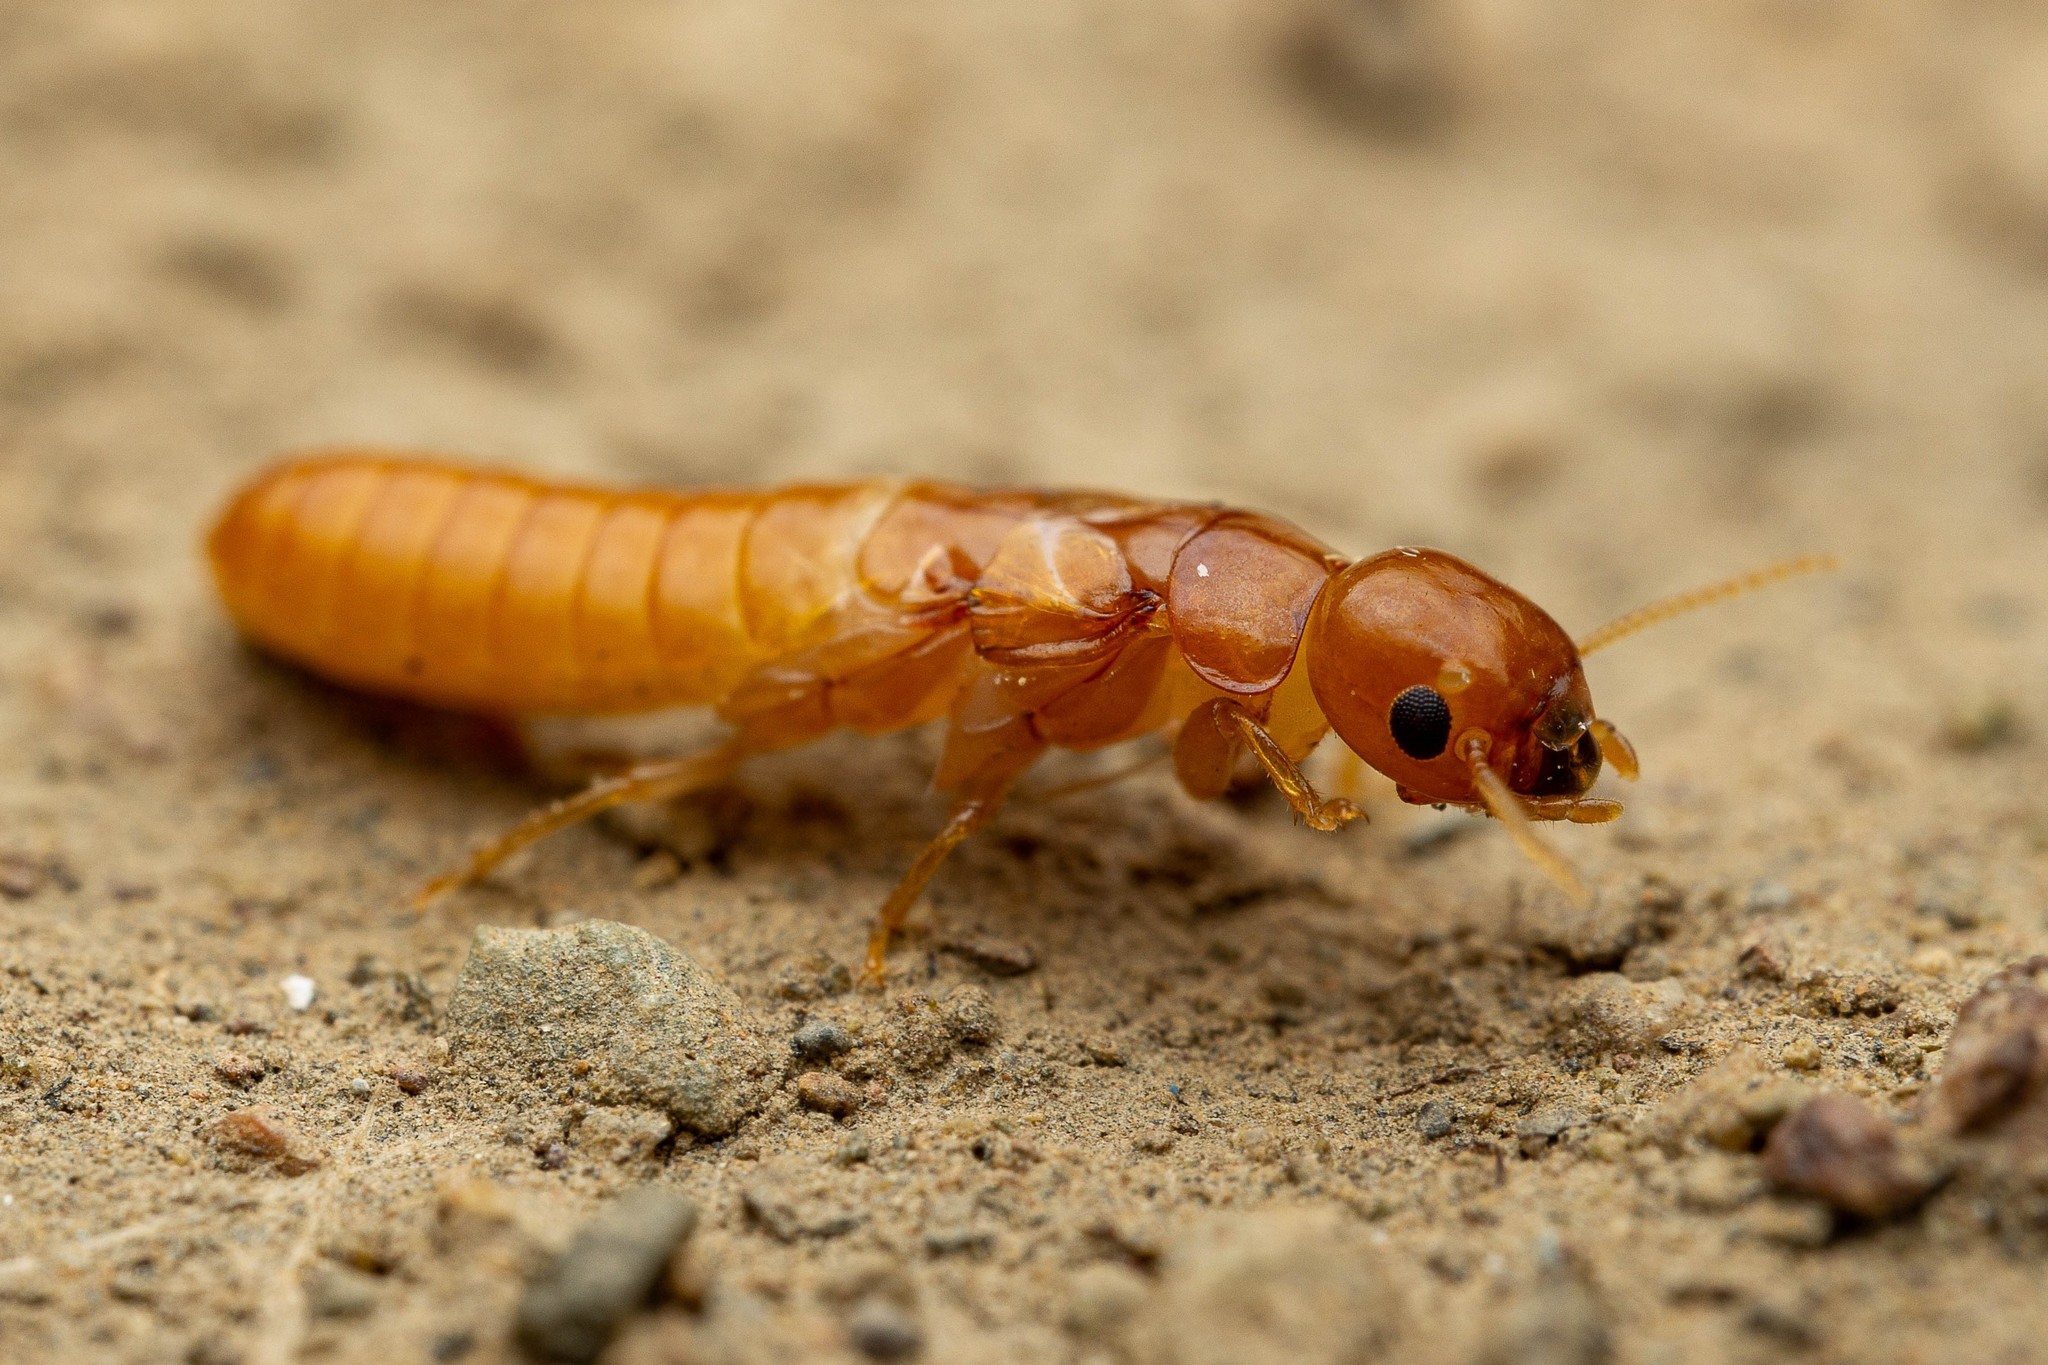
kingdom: Animalia
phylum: Arthropoda
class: Insecta
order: Blattodea
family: Kalotermitidae
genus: Marginitermes
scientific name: Marginitermes hubbardi
